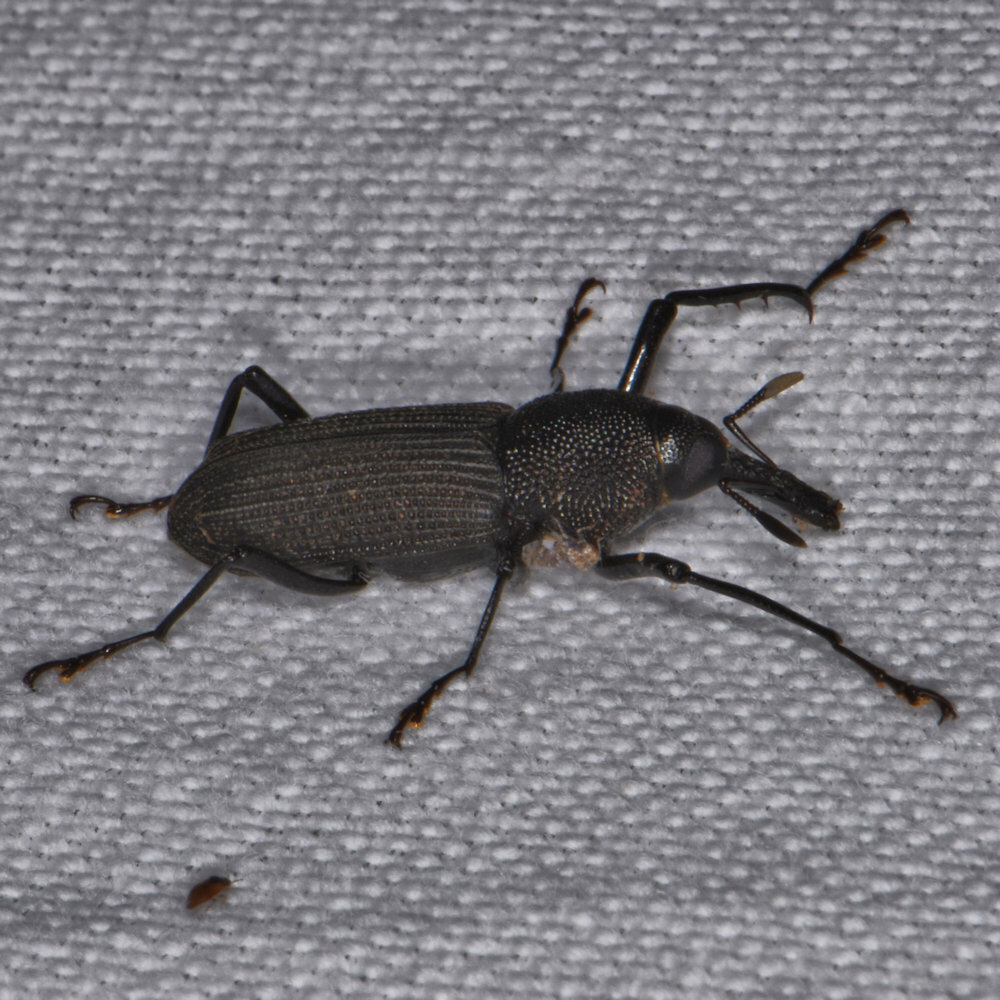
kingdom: Animalia
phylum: Arthropoda
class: Insecta
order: Coleoptera
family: Dryophthoridae
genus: Rhinostomus
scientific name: Rhinostomus barbirostris
